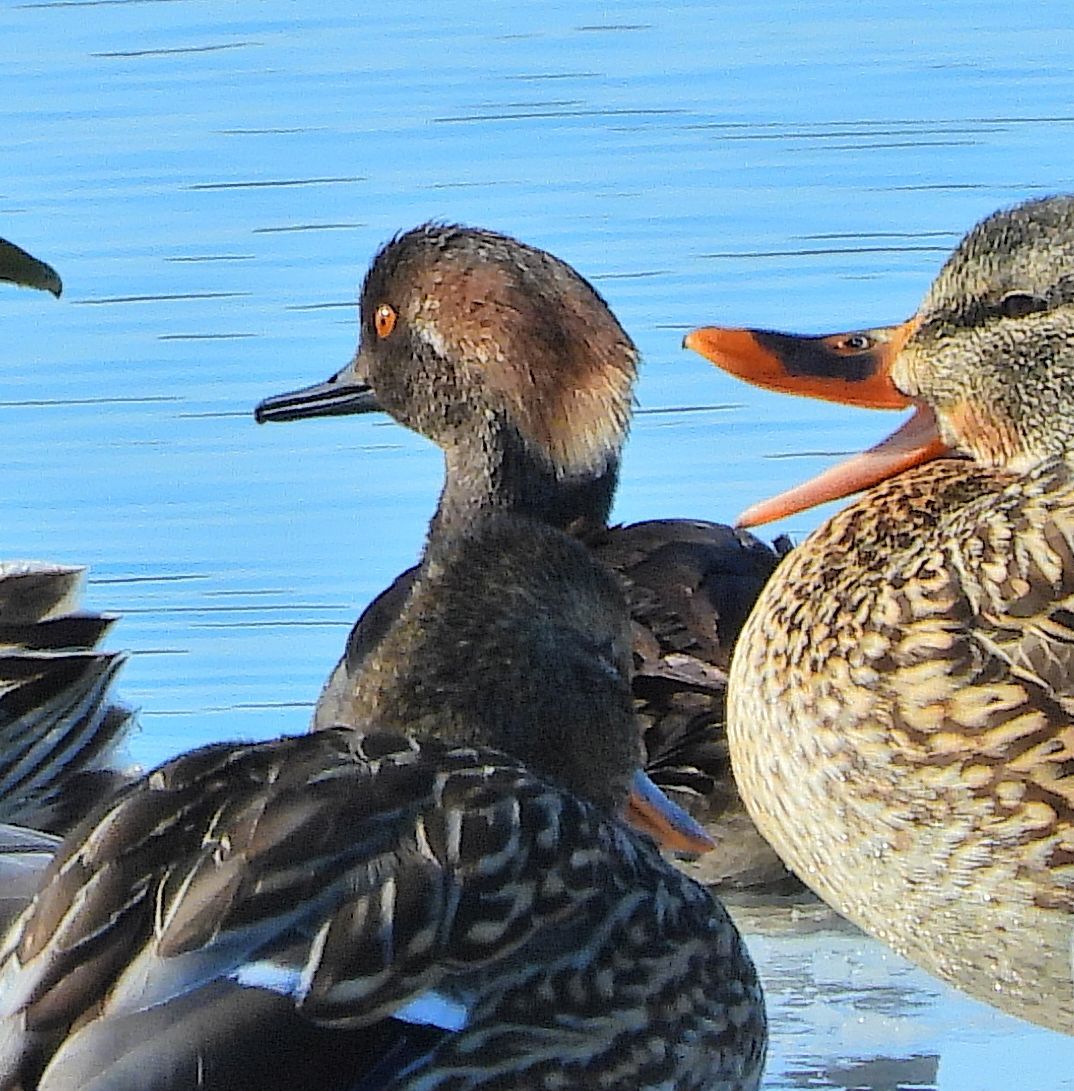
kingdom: Animalia
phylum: Chordata
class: Aves
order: Anseriformes
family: Anatidae
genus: Lophodytes
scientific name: Lophodytes cucullatus
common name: Hooded merganser
